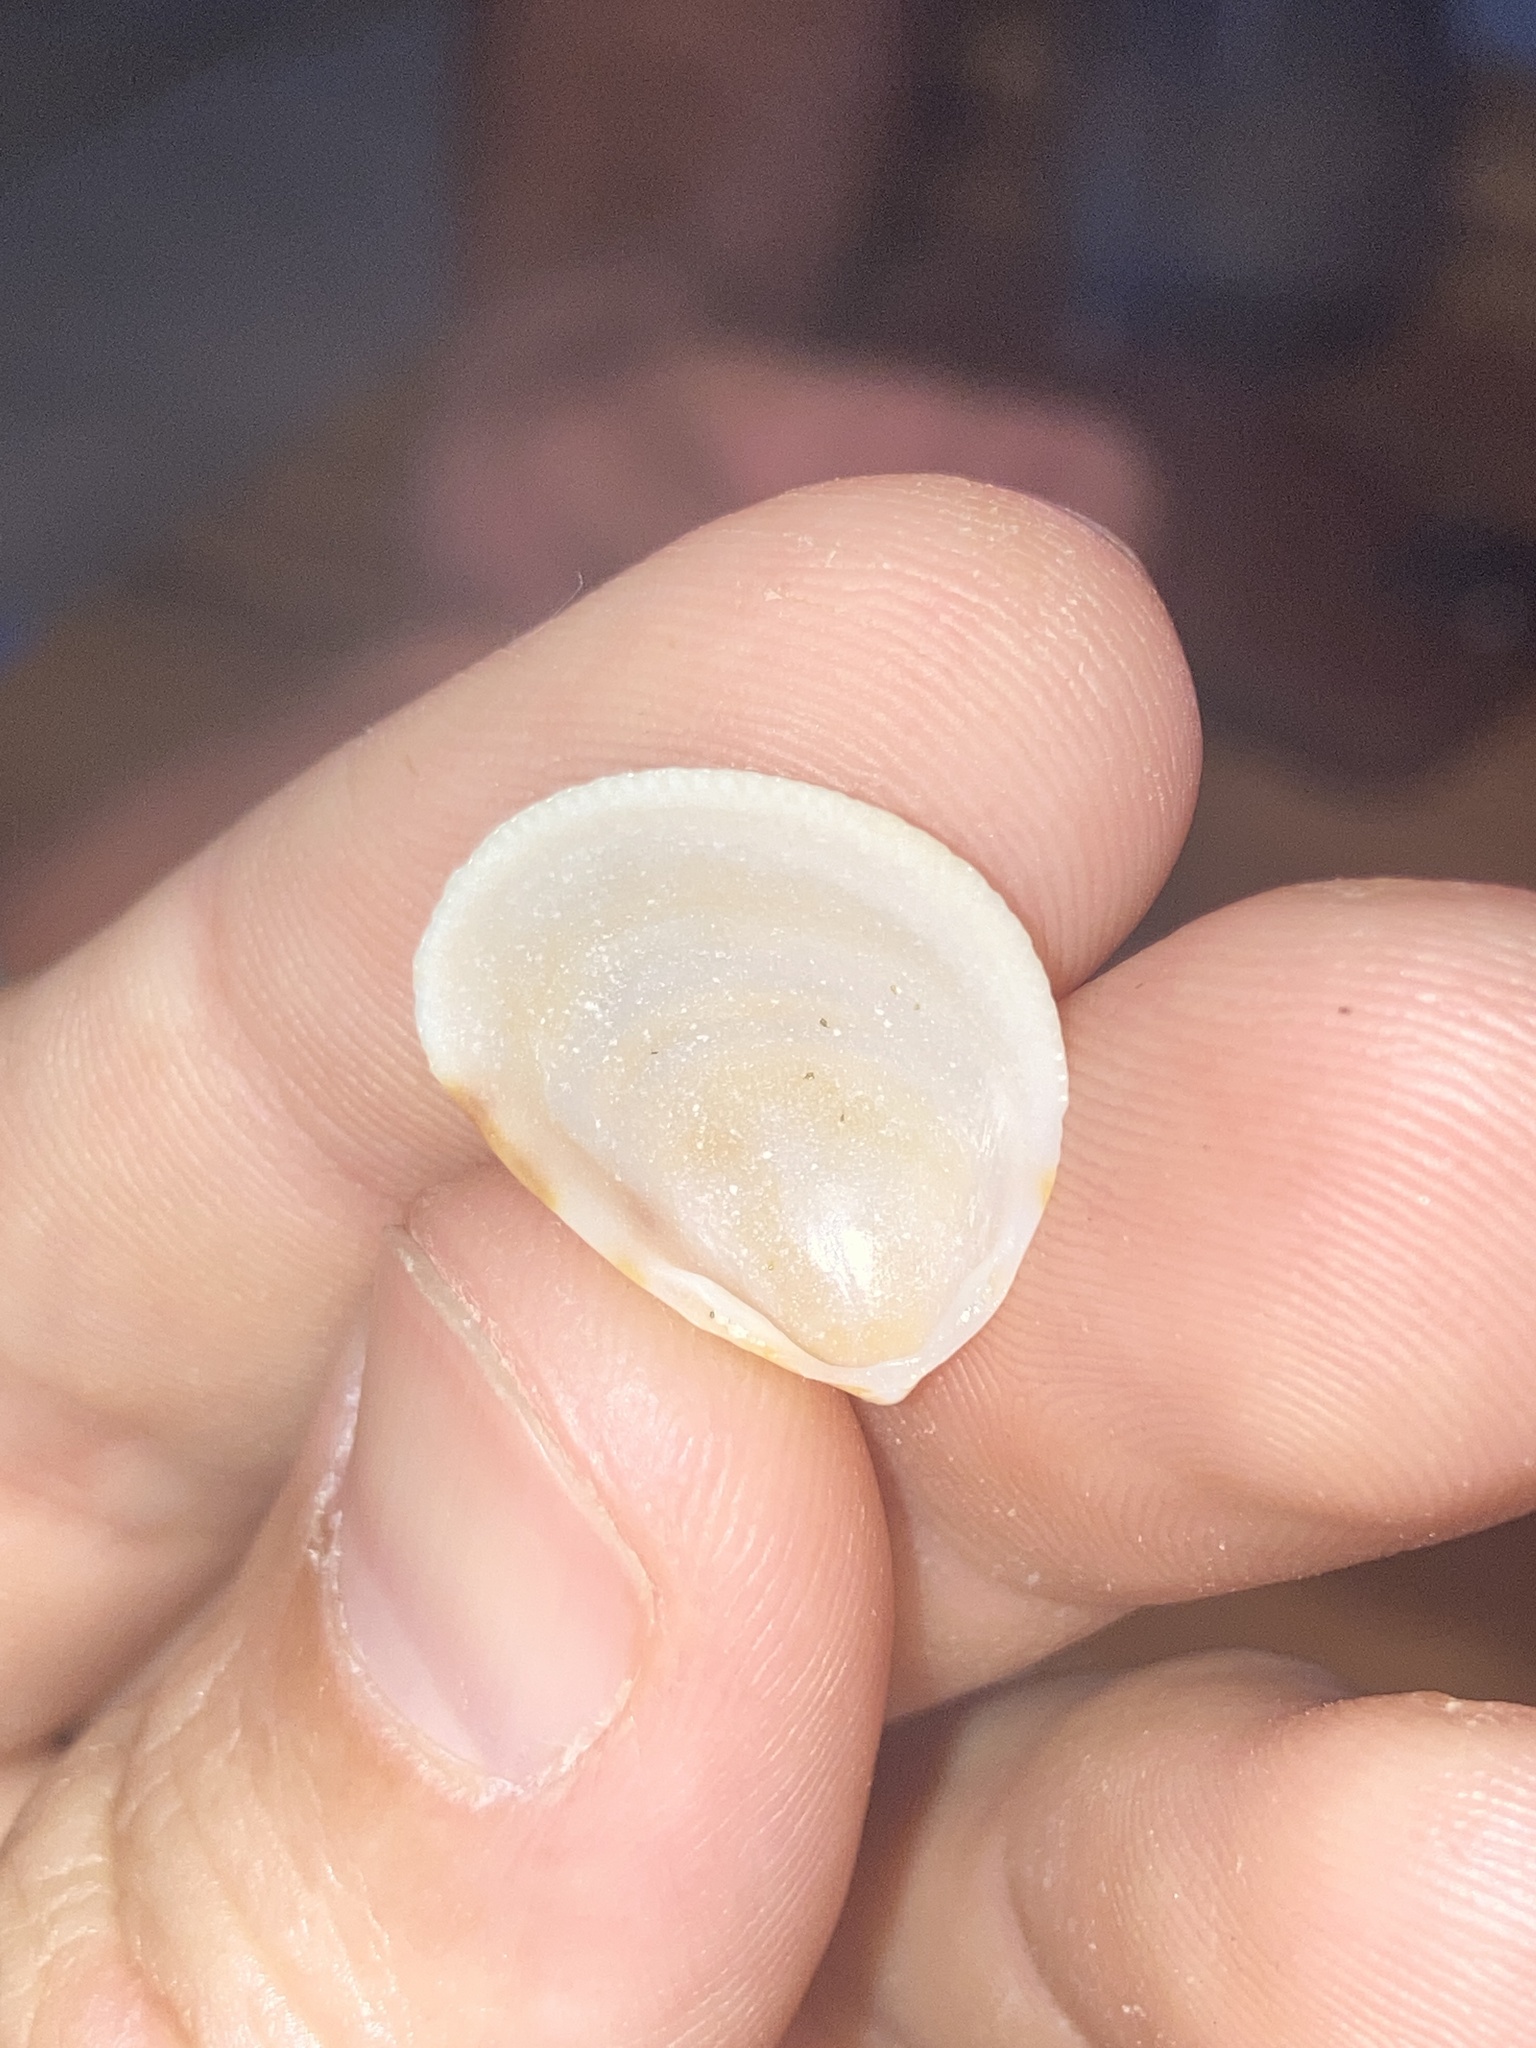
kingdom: Animalia
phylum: Mollusca
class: Bivalvia
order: Cardiida
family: Cardiidae
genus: Laevicardium
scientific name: Laevicardium pictum
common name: Painted eggcockle
